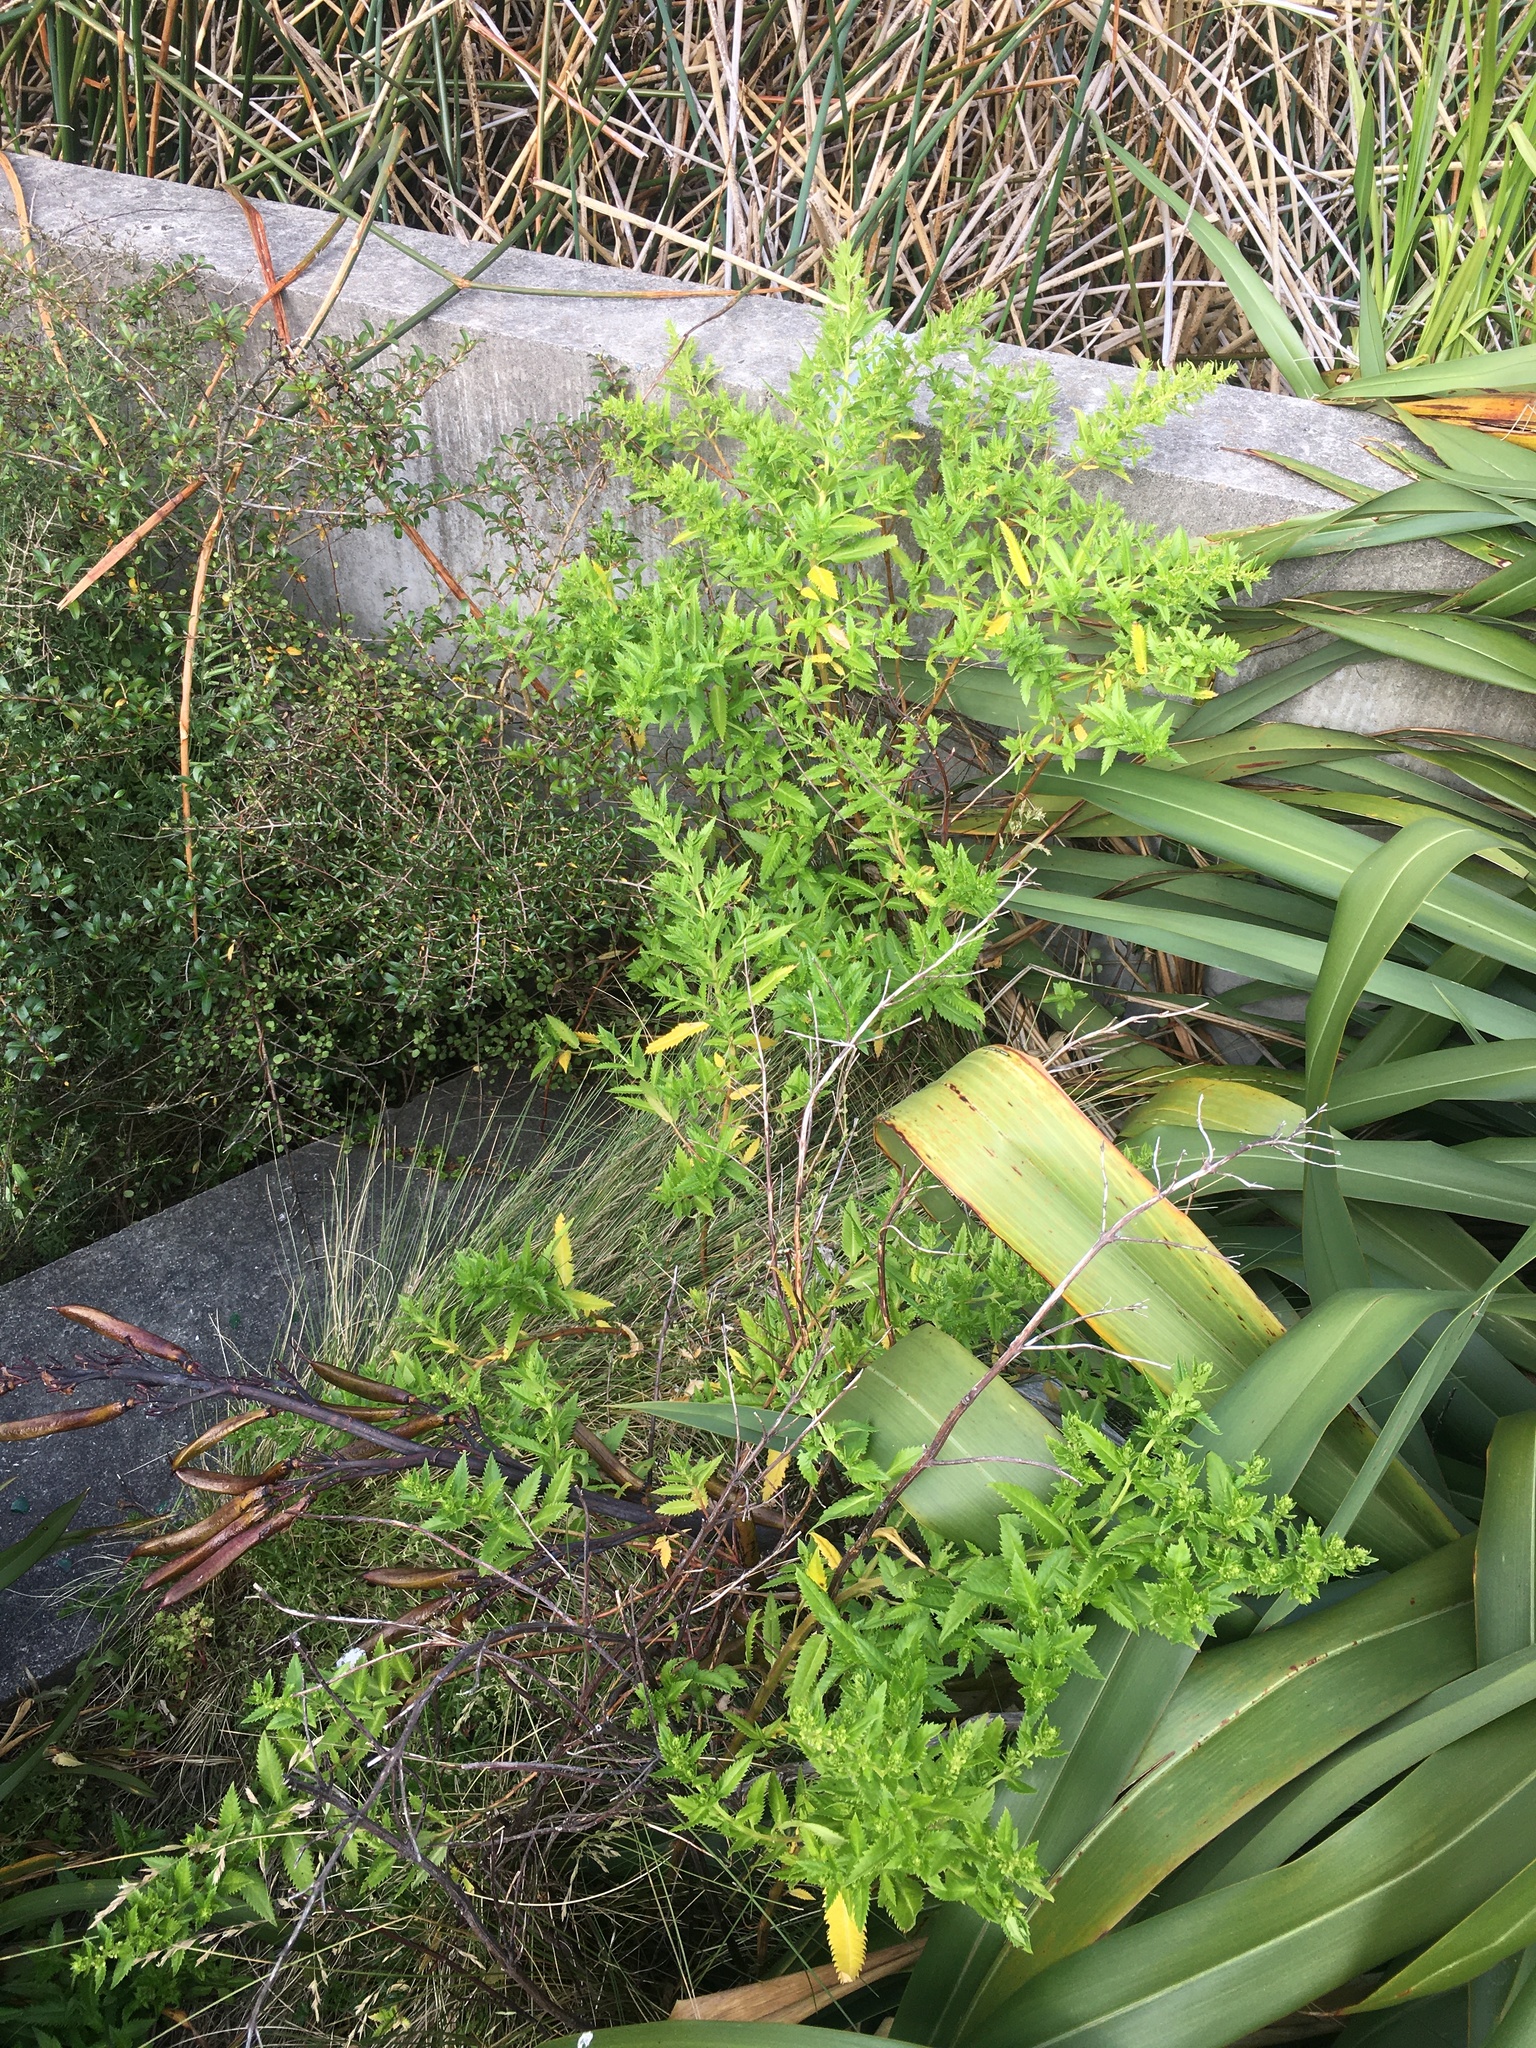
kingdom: Plantae
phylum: Tracheophyta
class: Magnoliopsida
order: Saxifragales
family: Haloragaceae
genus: Haloragis
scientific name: Haloragis erecta
